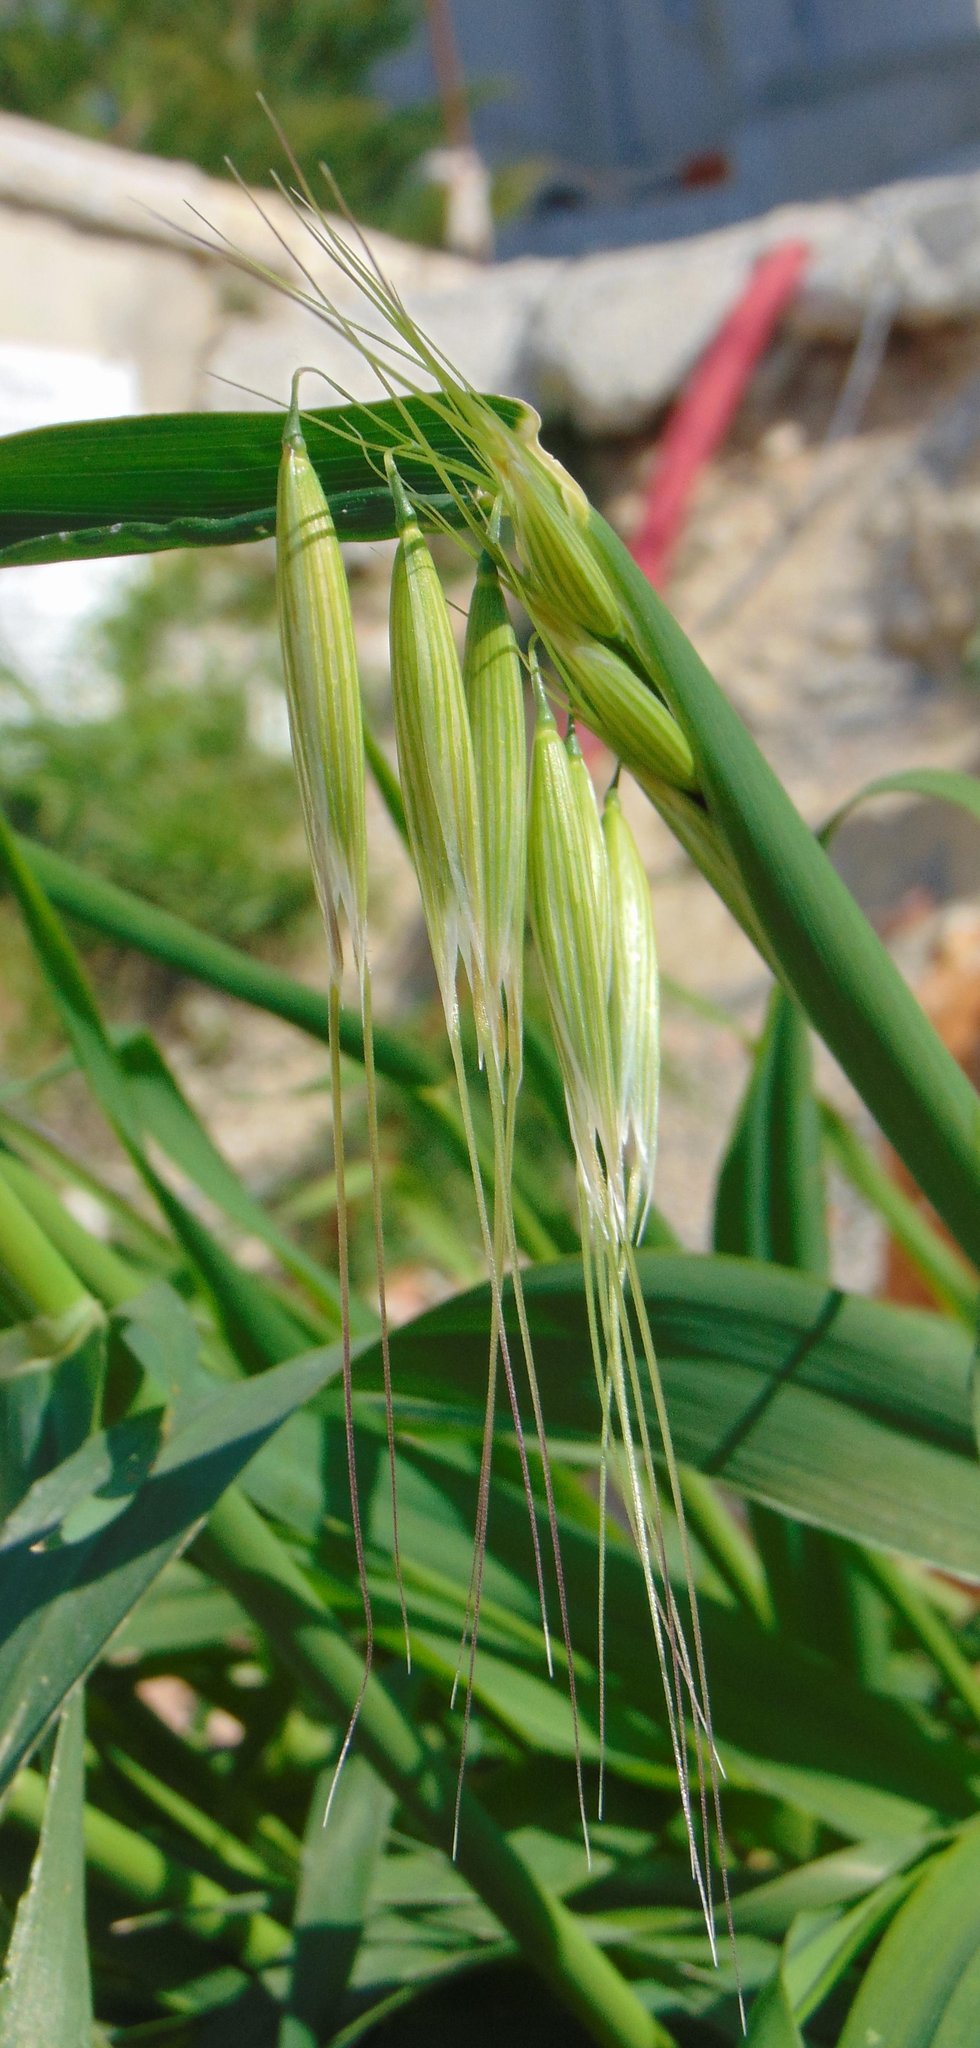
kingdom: Plantae
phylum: Tracheophyta
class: Liliopsida
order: Poales
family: Poaceae
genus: Avena
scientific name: Avena
